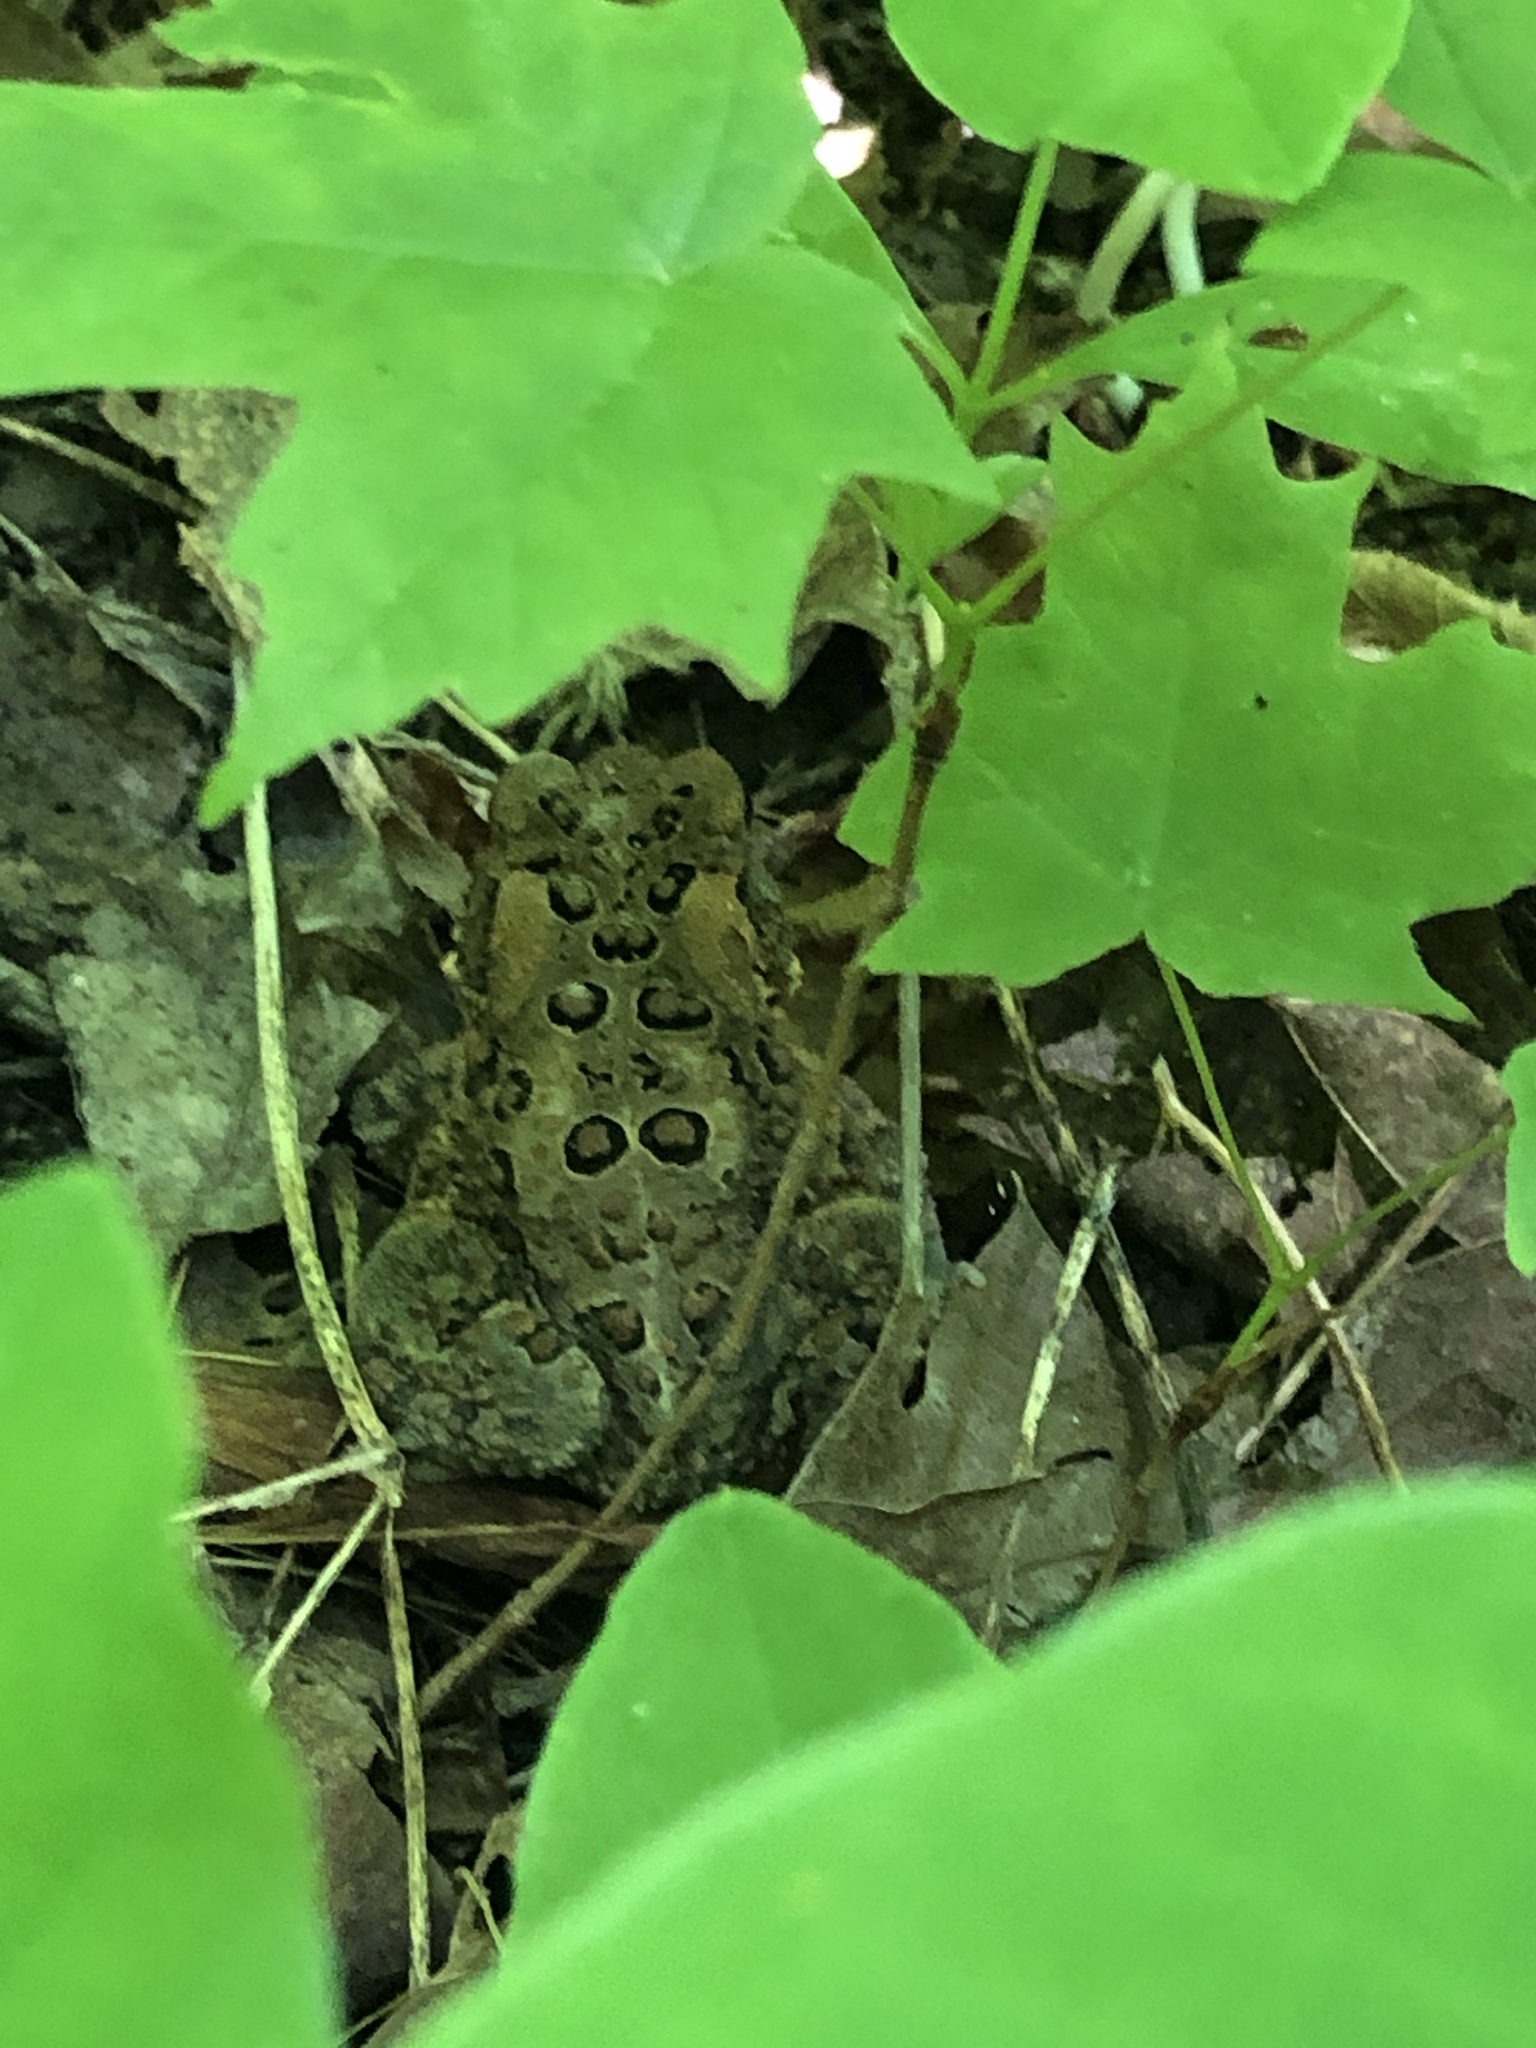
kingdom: Animalia
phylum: Chordata
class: Amphibia
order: Anura
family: Bufonidae
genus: Anaxyrus
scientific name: Anaxyrus americanus
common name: American toad
